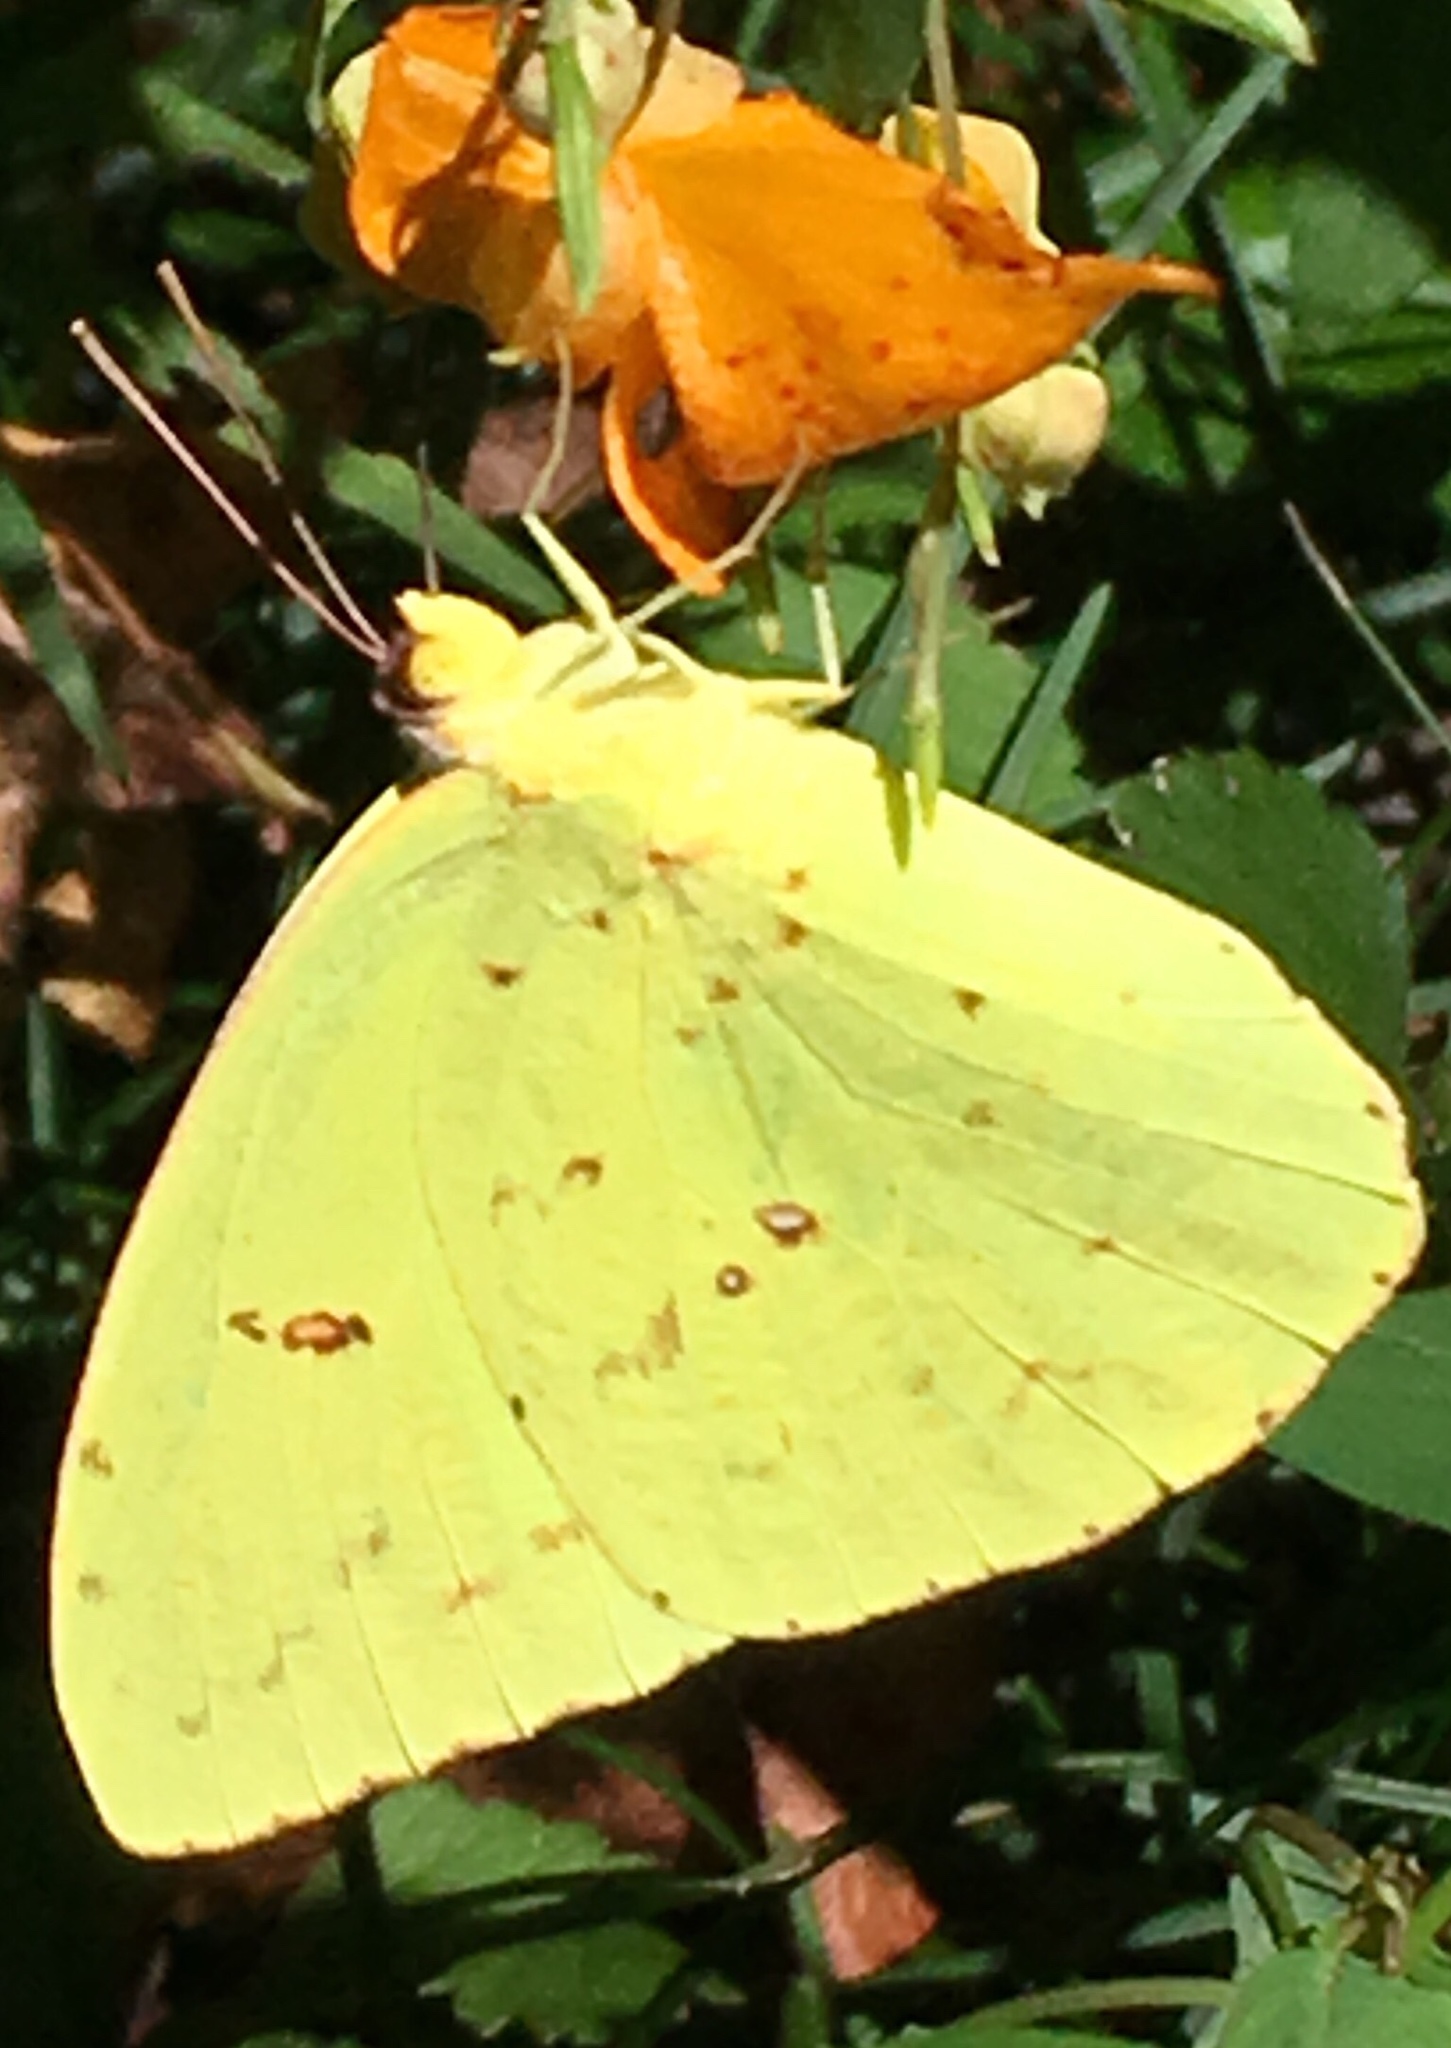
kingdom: Animalia
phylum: Arthropoda
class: Insecta
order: Lepidoptera
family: Pieridae
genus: Phoebis
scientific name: Phoebis sennae
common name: Cloudless sulphur
